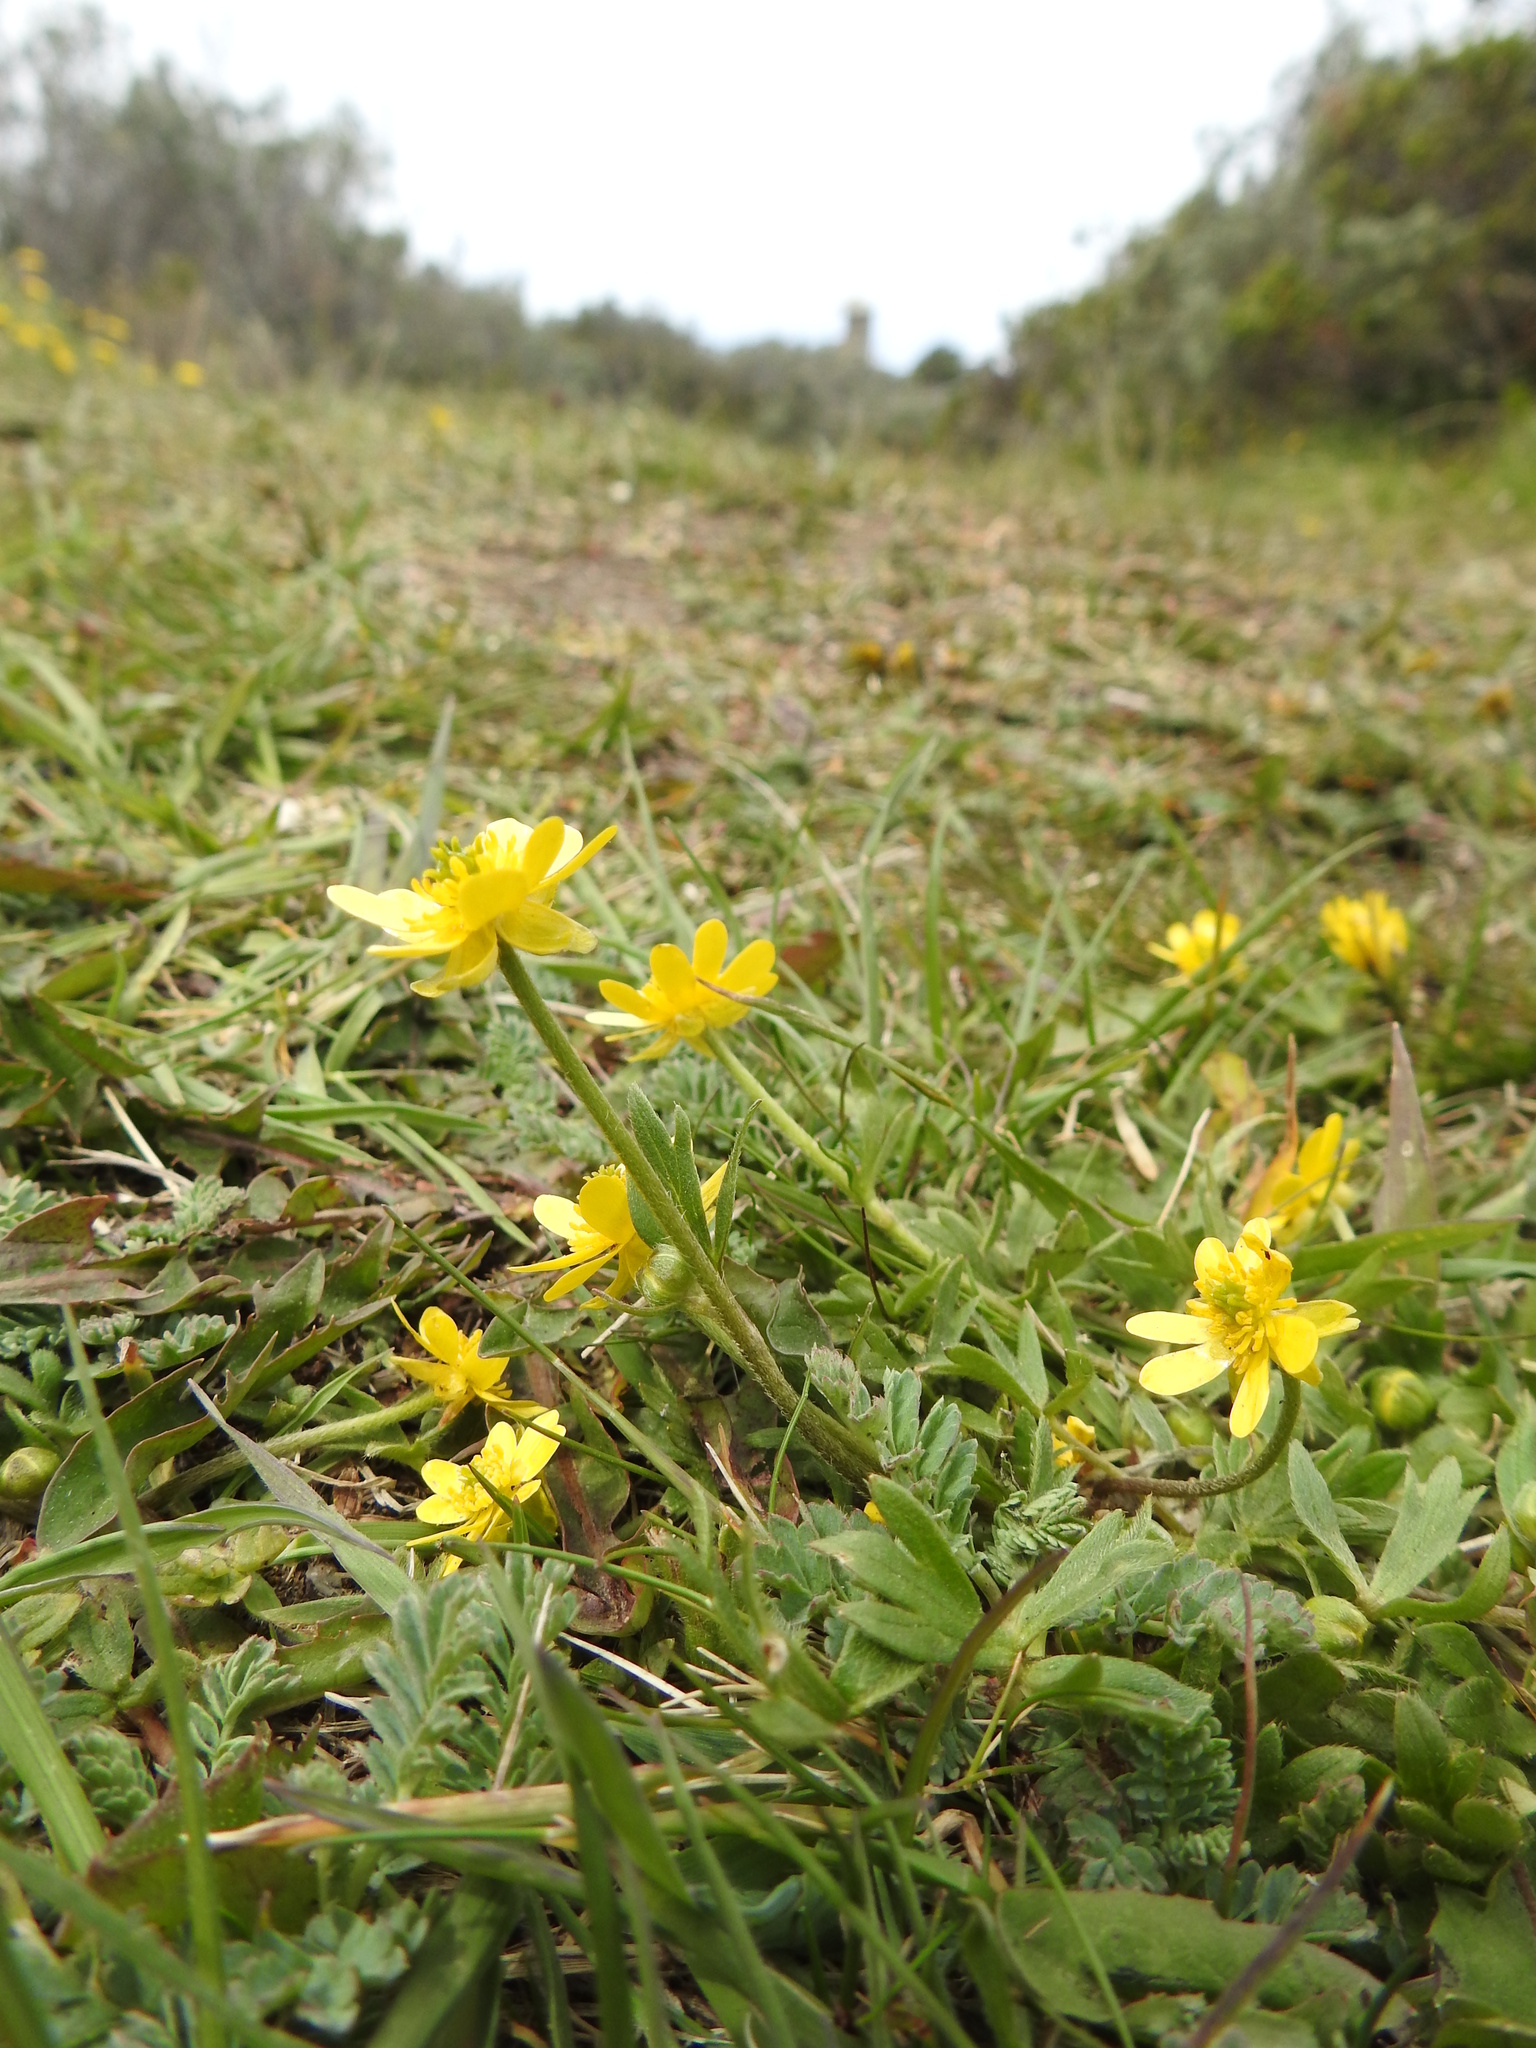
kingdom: Plantae
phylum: Tracheophyta
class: Magnoliopsida
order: Ranunculales
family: Ranunculaceae
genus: Ranunculus
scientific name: Ranunculus peduncularis
